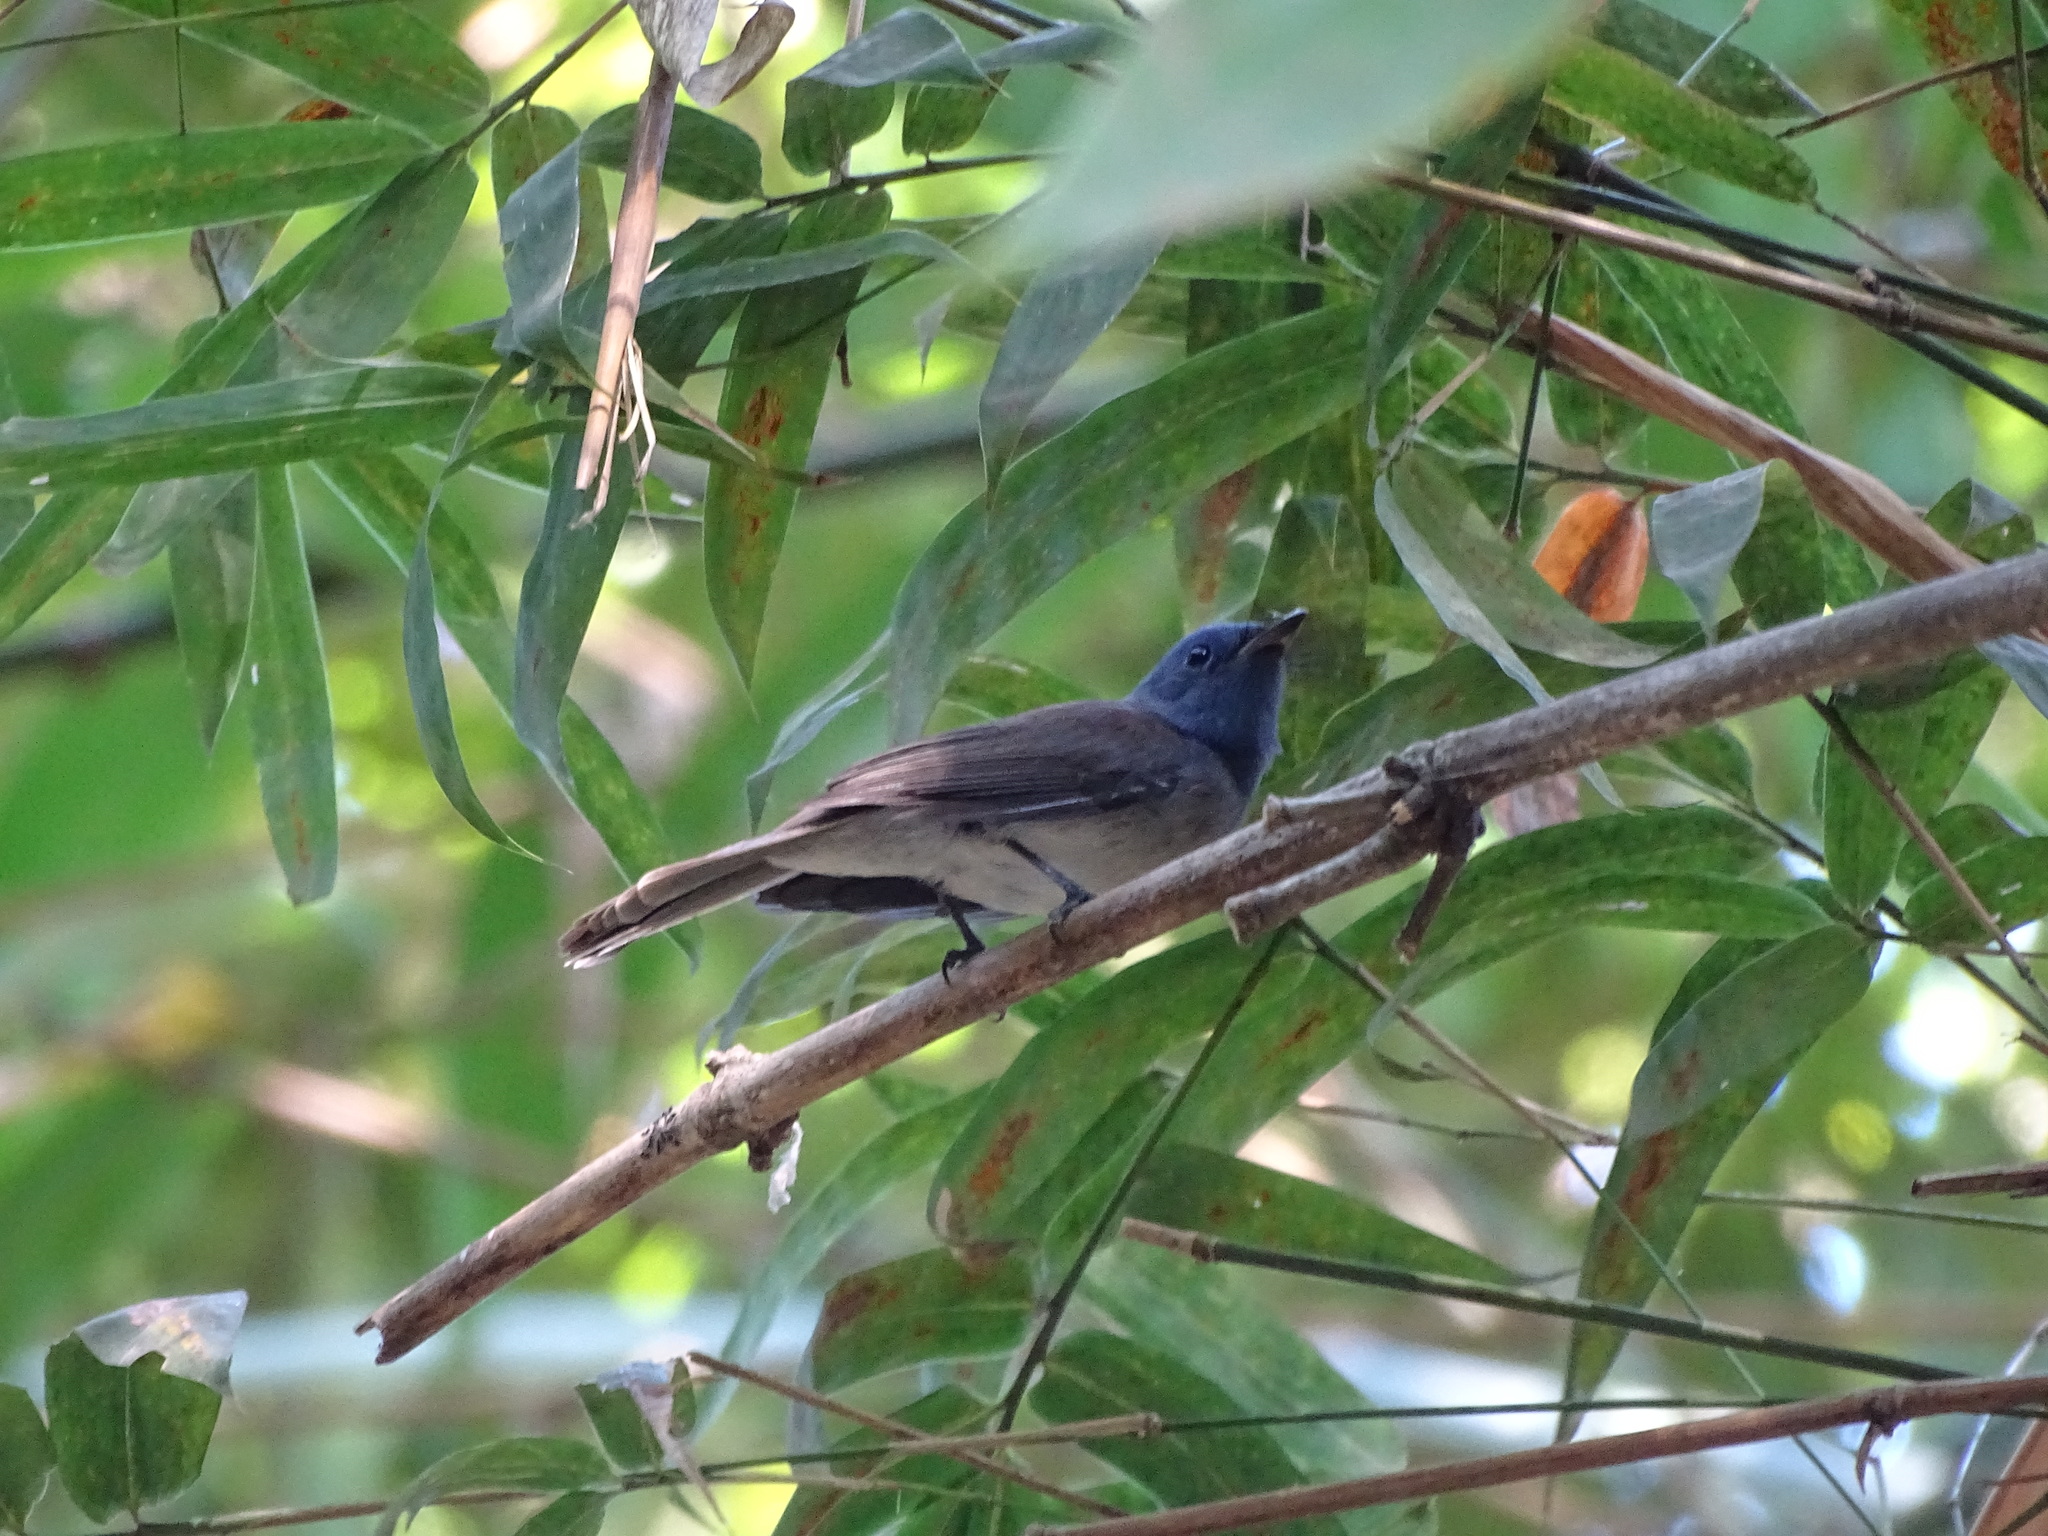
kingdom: Animalia
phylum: Chordata
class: Aves
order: Passeriformes
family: Monarchidae
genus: Hypothymis
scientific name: Hypothymis azurea
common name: Black-naped monarch
